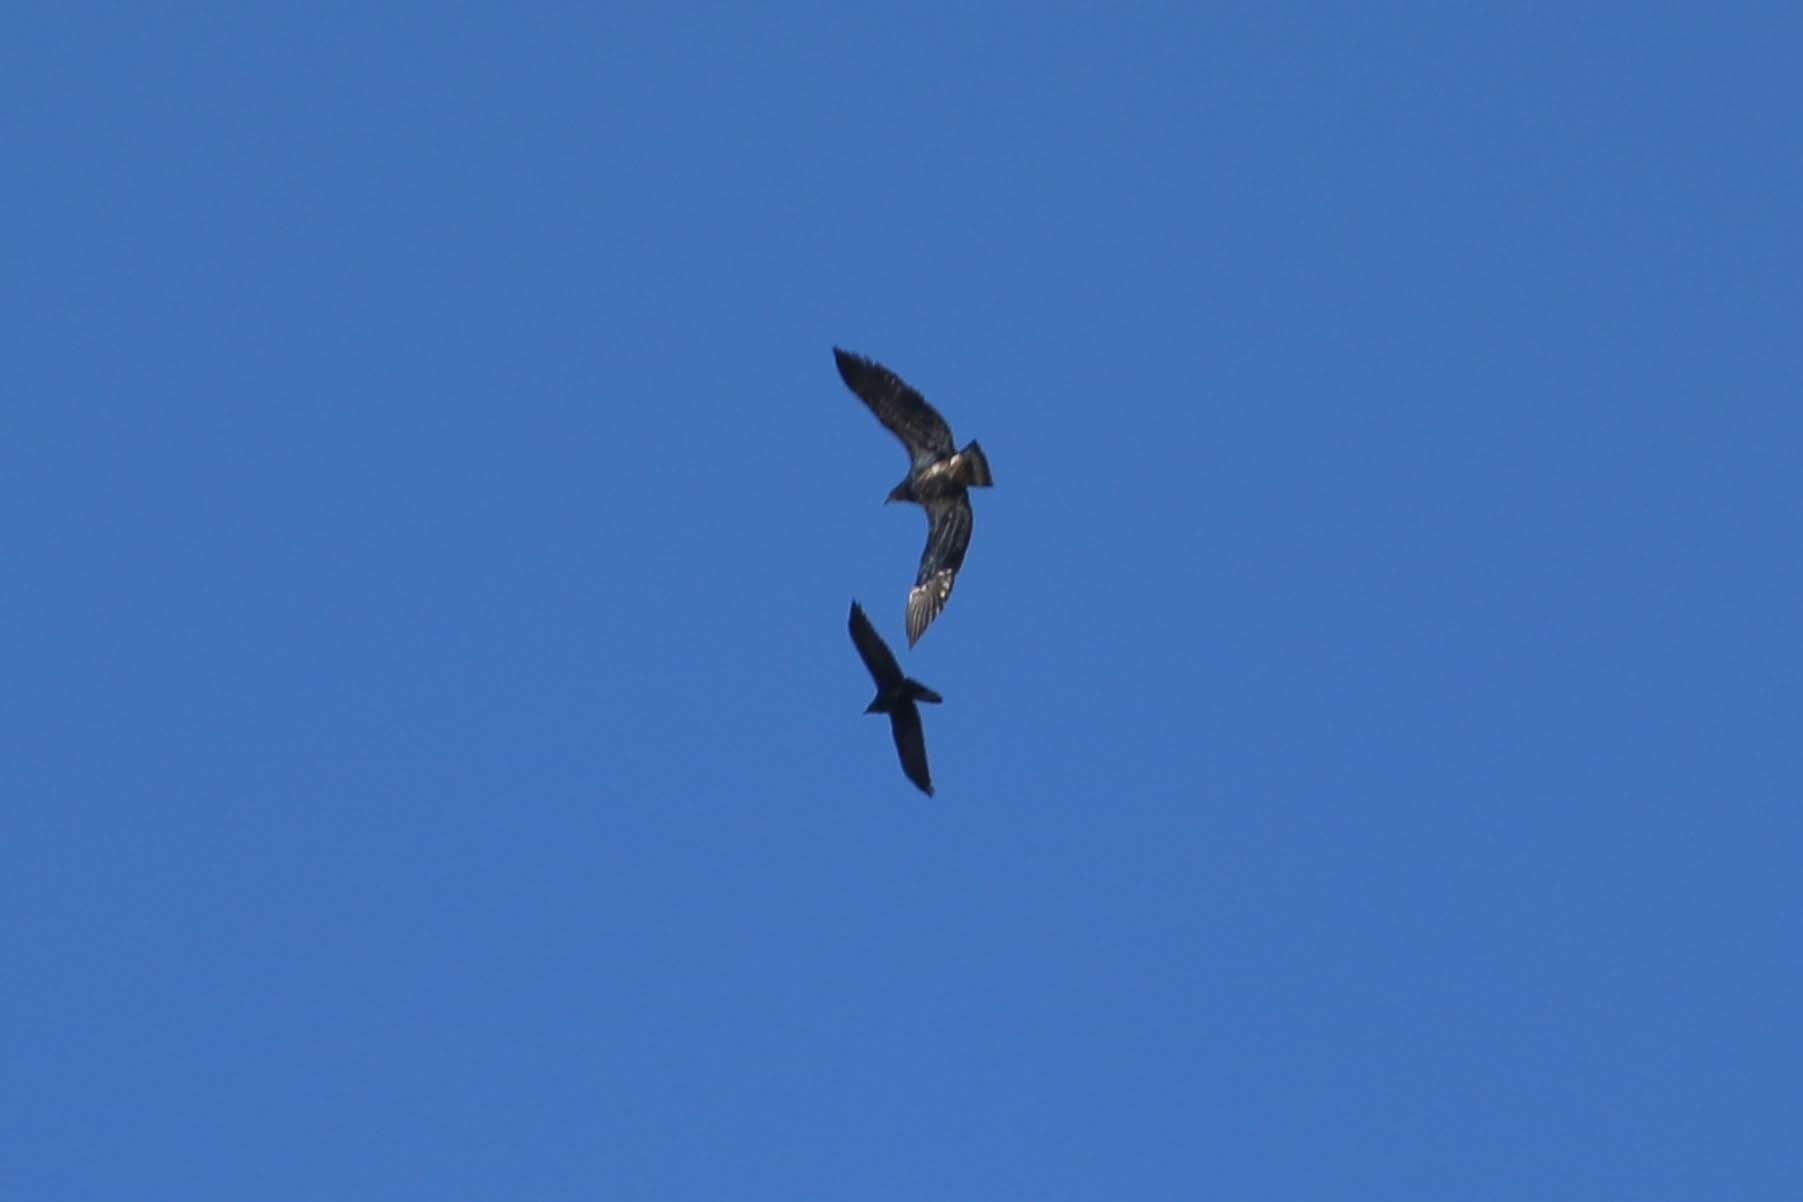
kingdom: Animalia
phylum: Chordata
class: Aves
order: Accipitriformes
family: Accipitridae
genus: Haliaeetus
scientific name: Haliaeetus leucocephalus
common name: Bald eagle
